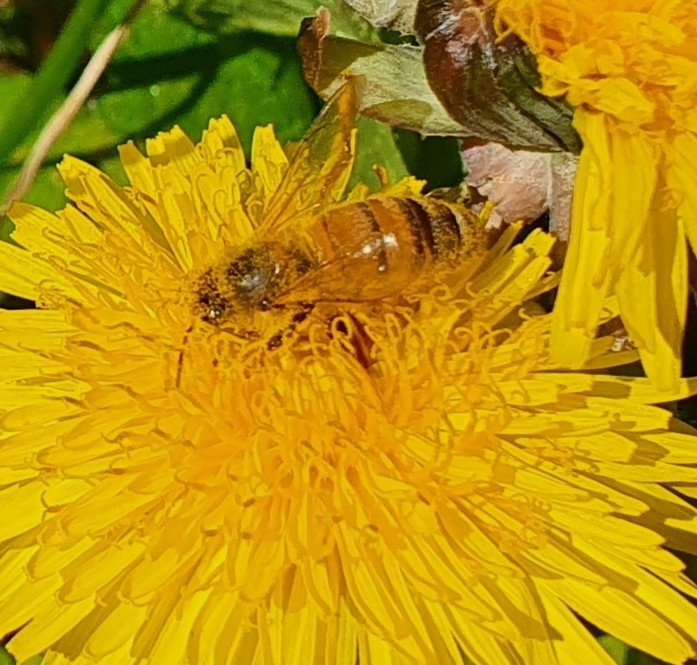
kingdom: Animalia
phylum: Arthropoda
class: Insecta
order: Hymenoptera
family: Apidae
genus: Apis
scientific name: Apis mellifera
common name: Honey bee
